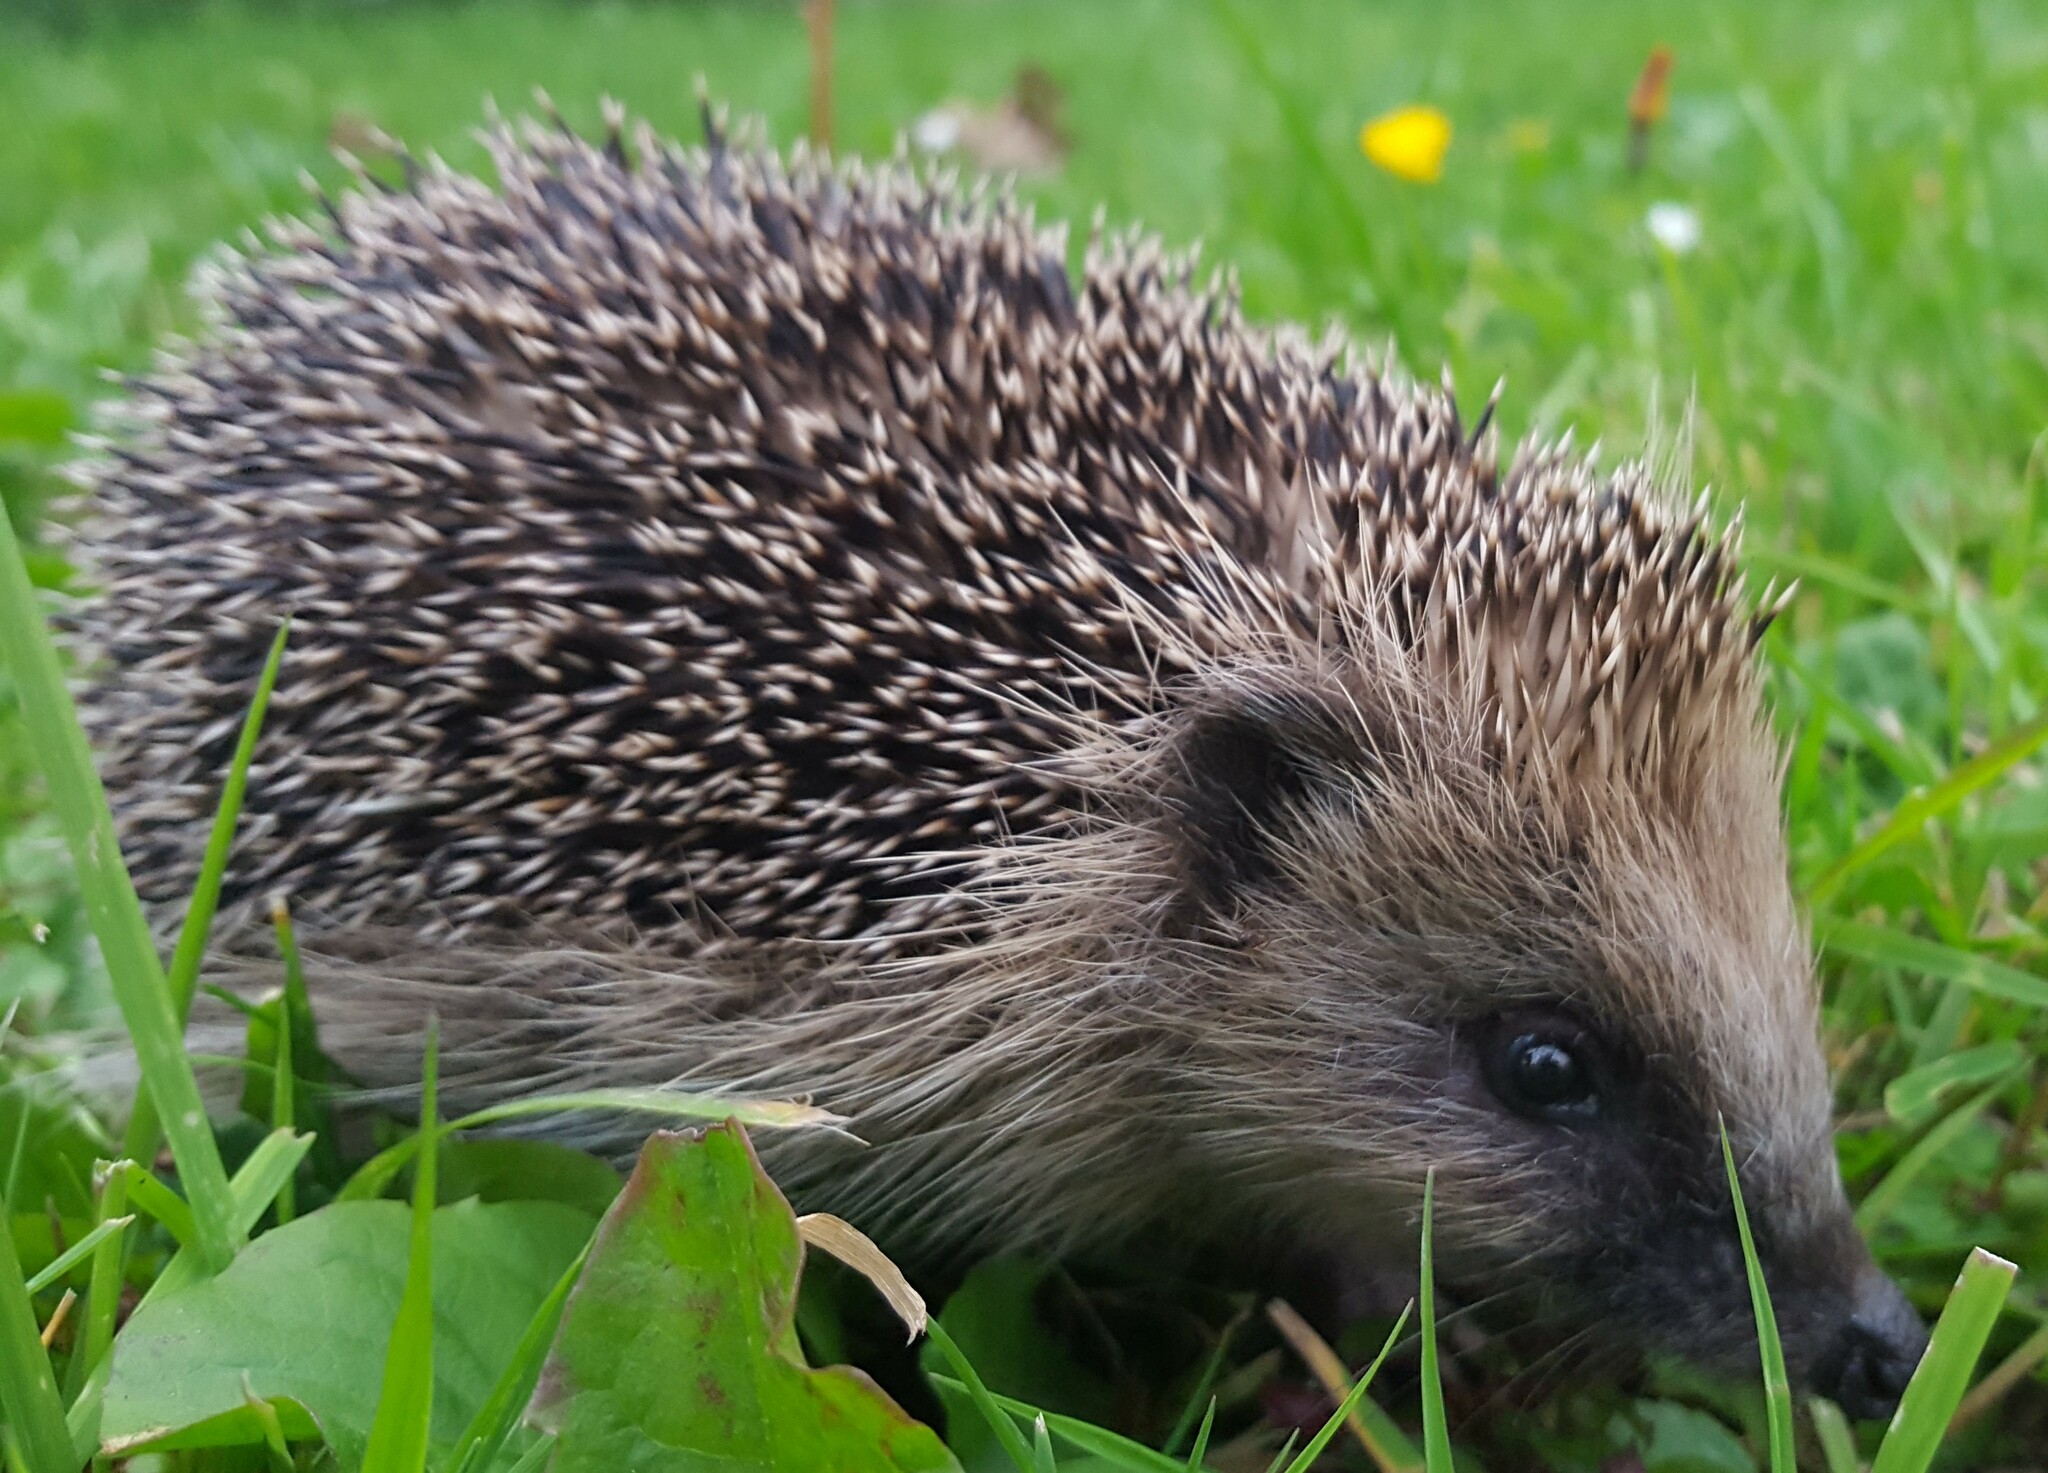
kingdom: Animalia
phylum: Chordata
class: Mammalia
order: Erinaceomorpha
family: Erinaceidae
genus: Erinaceus
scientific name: Erinaceus europaeus
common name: West european hedgehog
